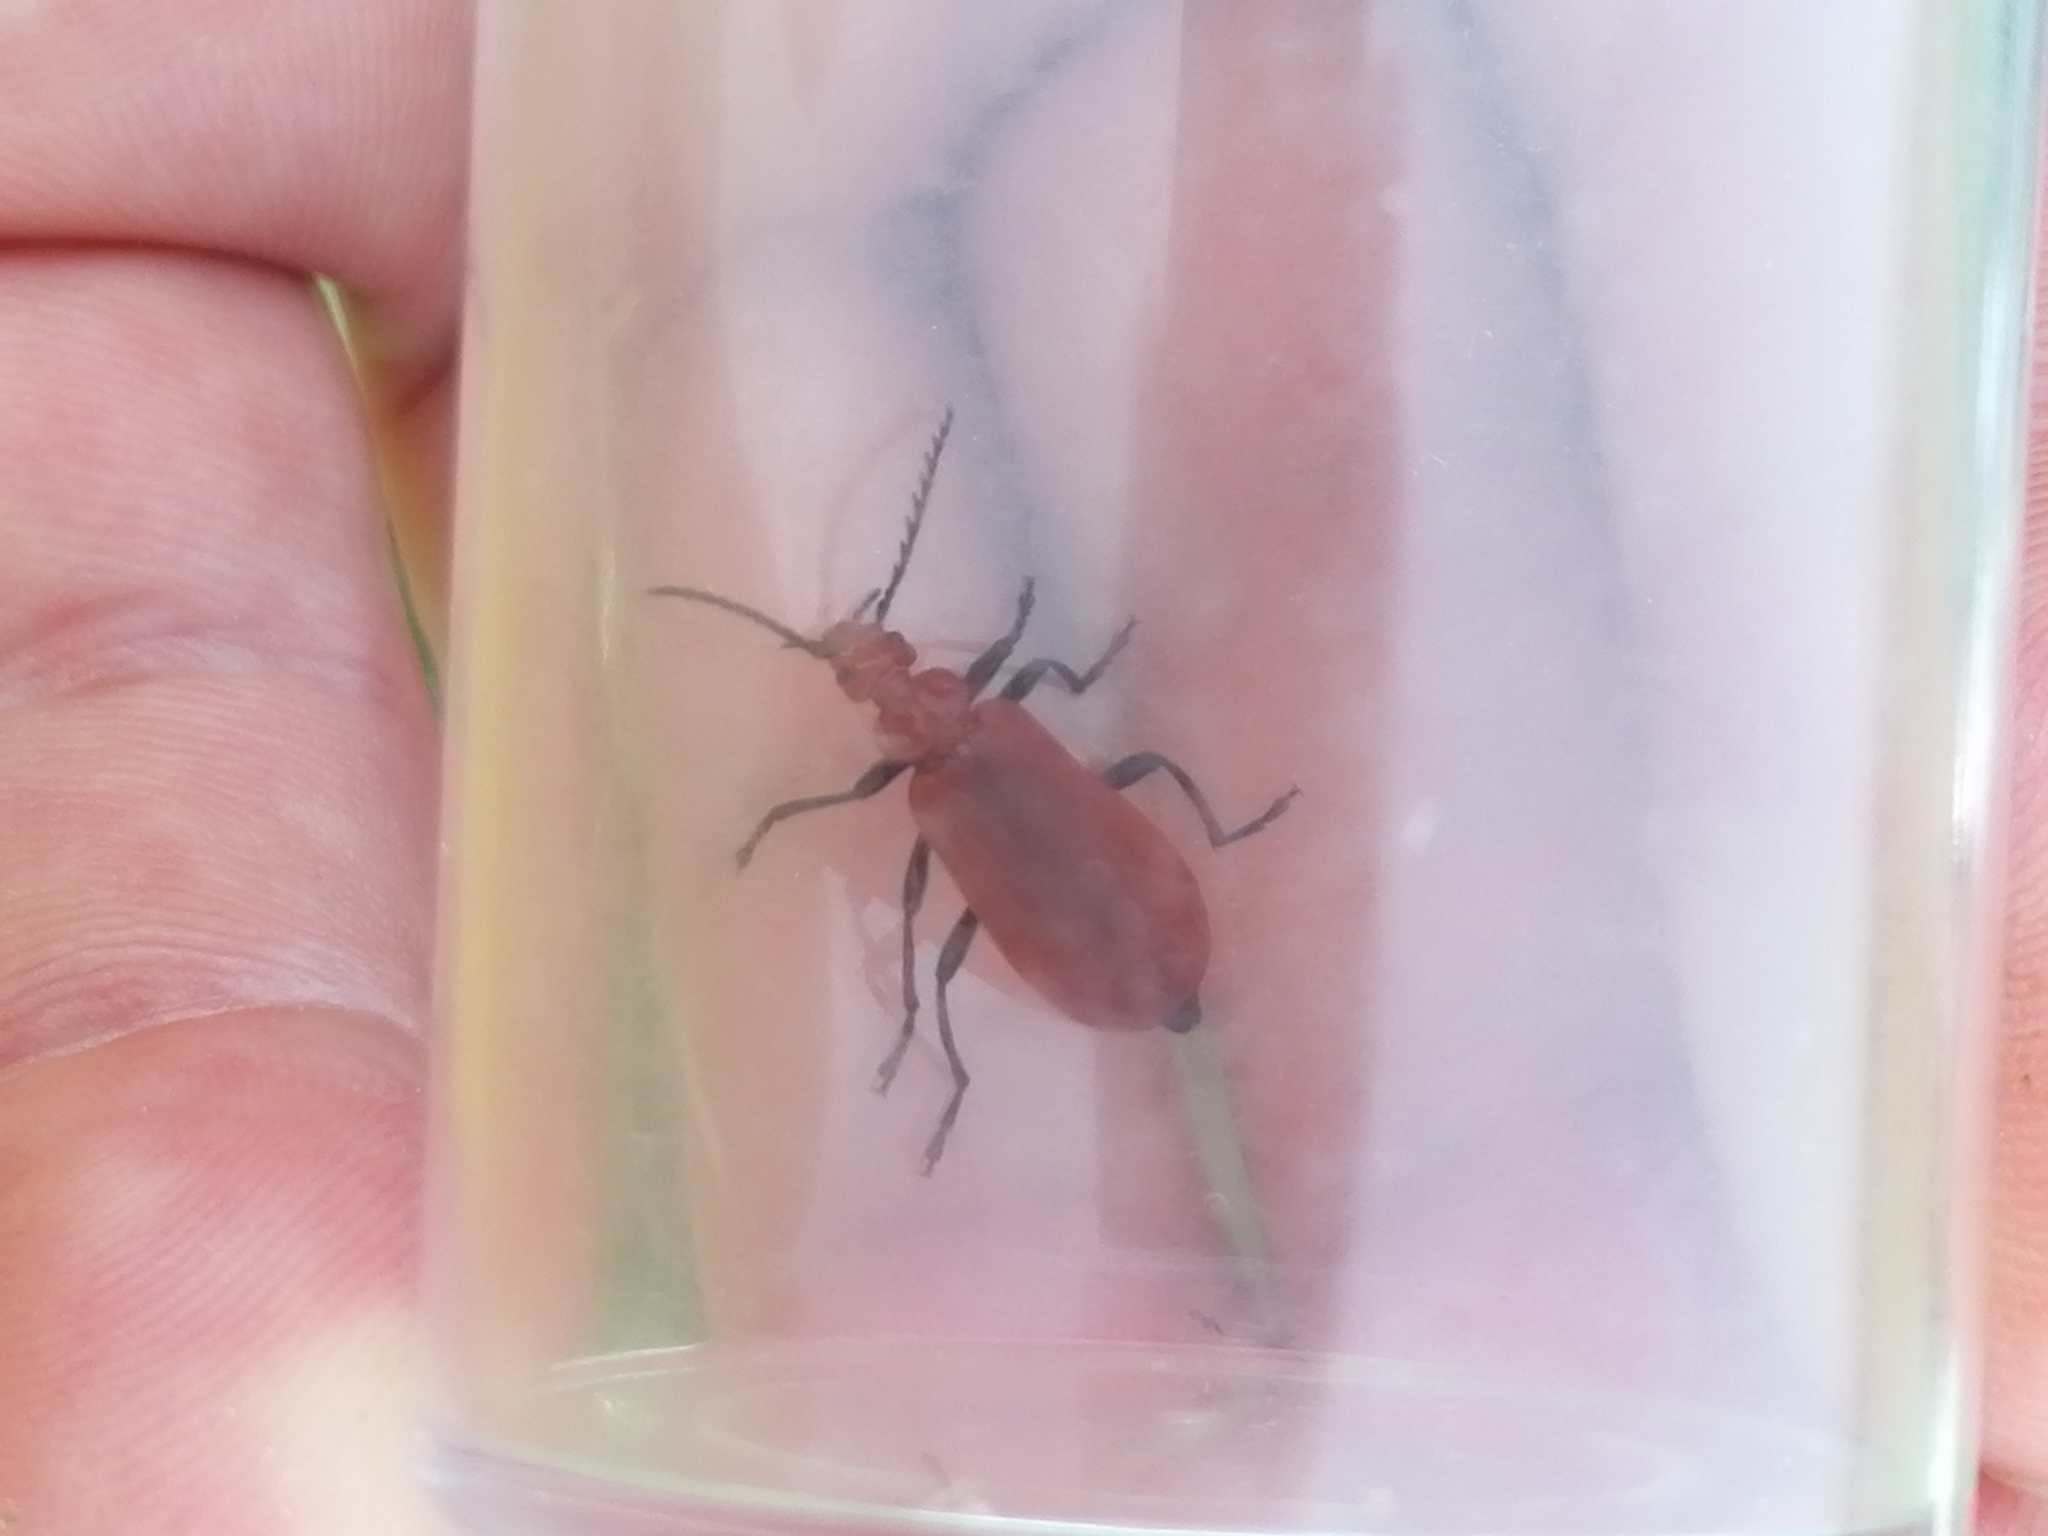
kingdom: Animalia
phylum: Arthropoda
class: Insecta
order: Coleoptera
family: Pyrochroidae
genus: Pyrochroa
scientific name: Pyrochroa serraticornis
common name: Red-headed cardinal beetle
